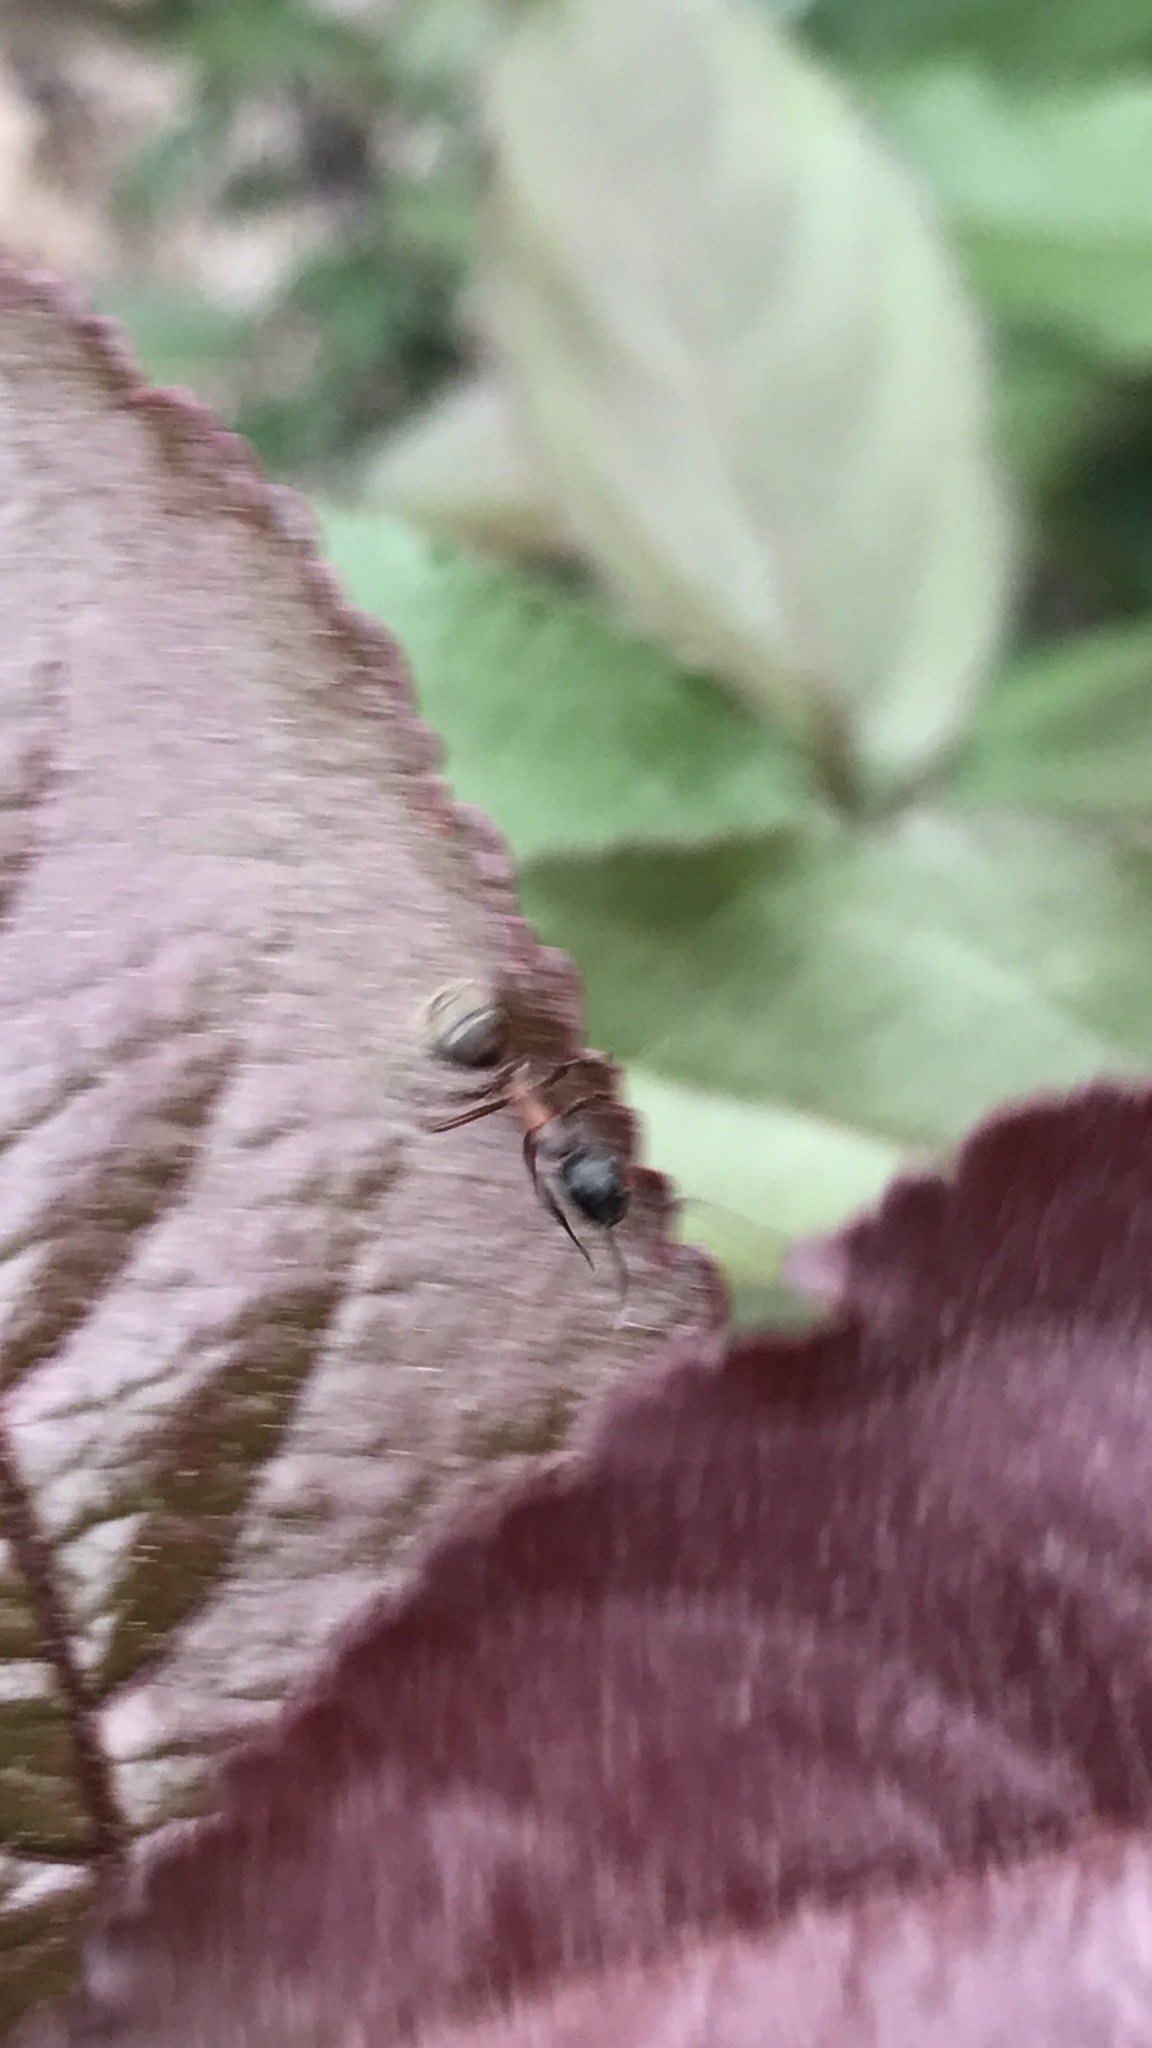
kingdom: Animalia
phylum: Arthropoda
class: Insecta
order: Hymenoptera
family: Formicidae
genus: Camponotus
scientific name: Camponotus chromaiodes
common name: Red carpenter ant
